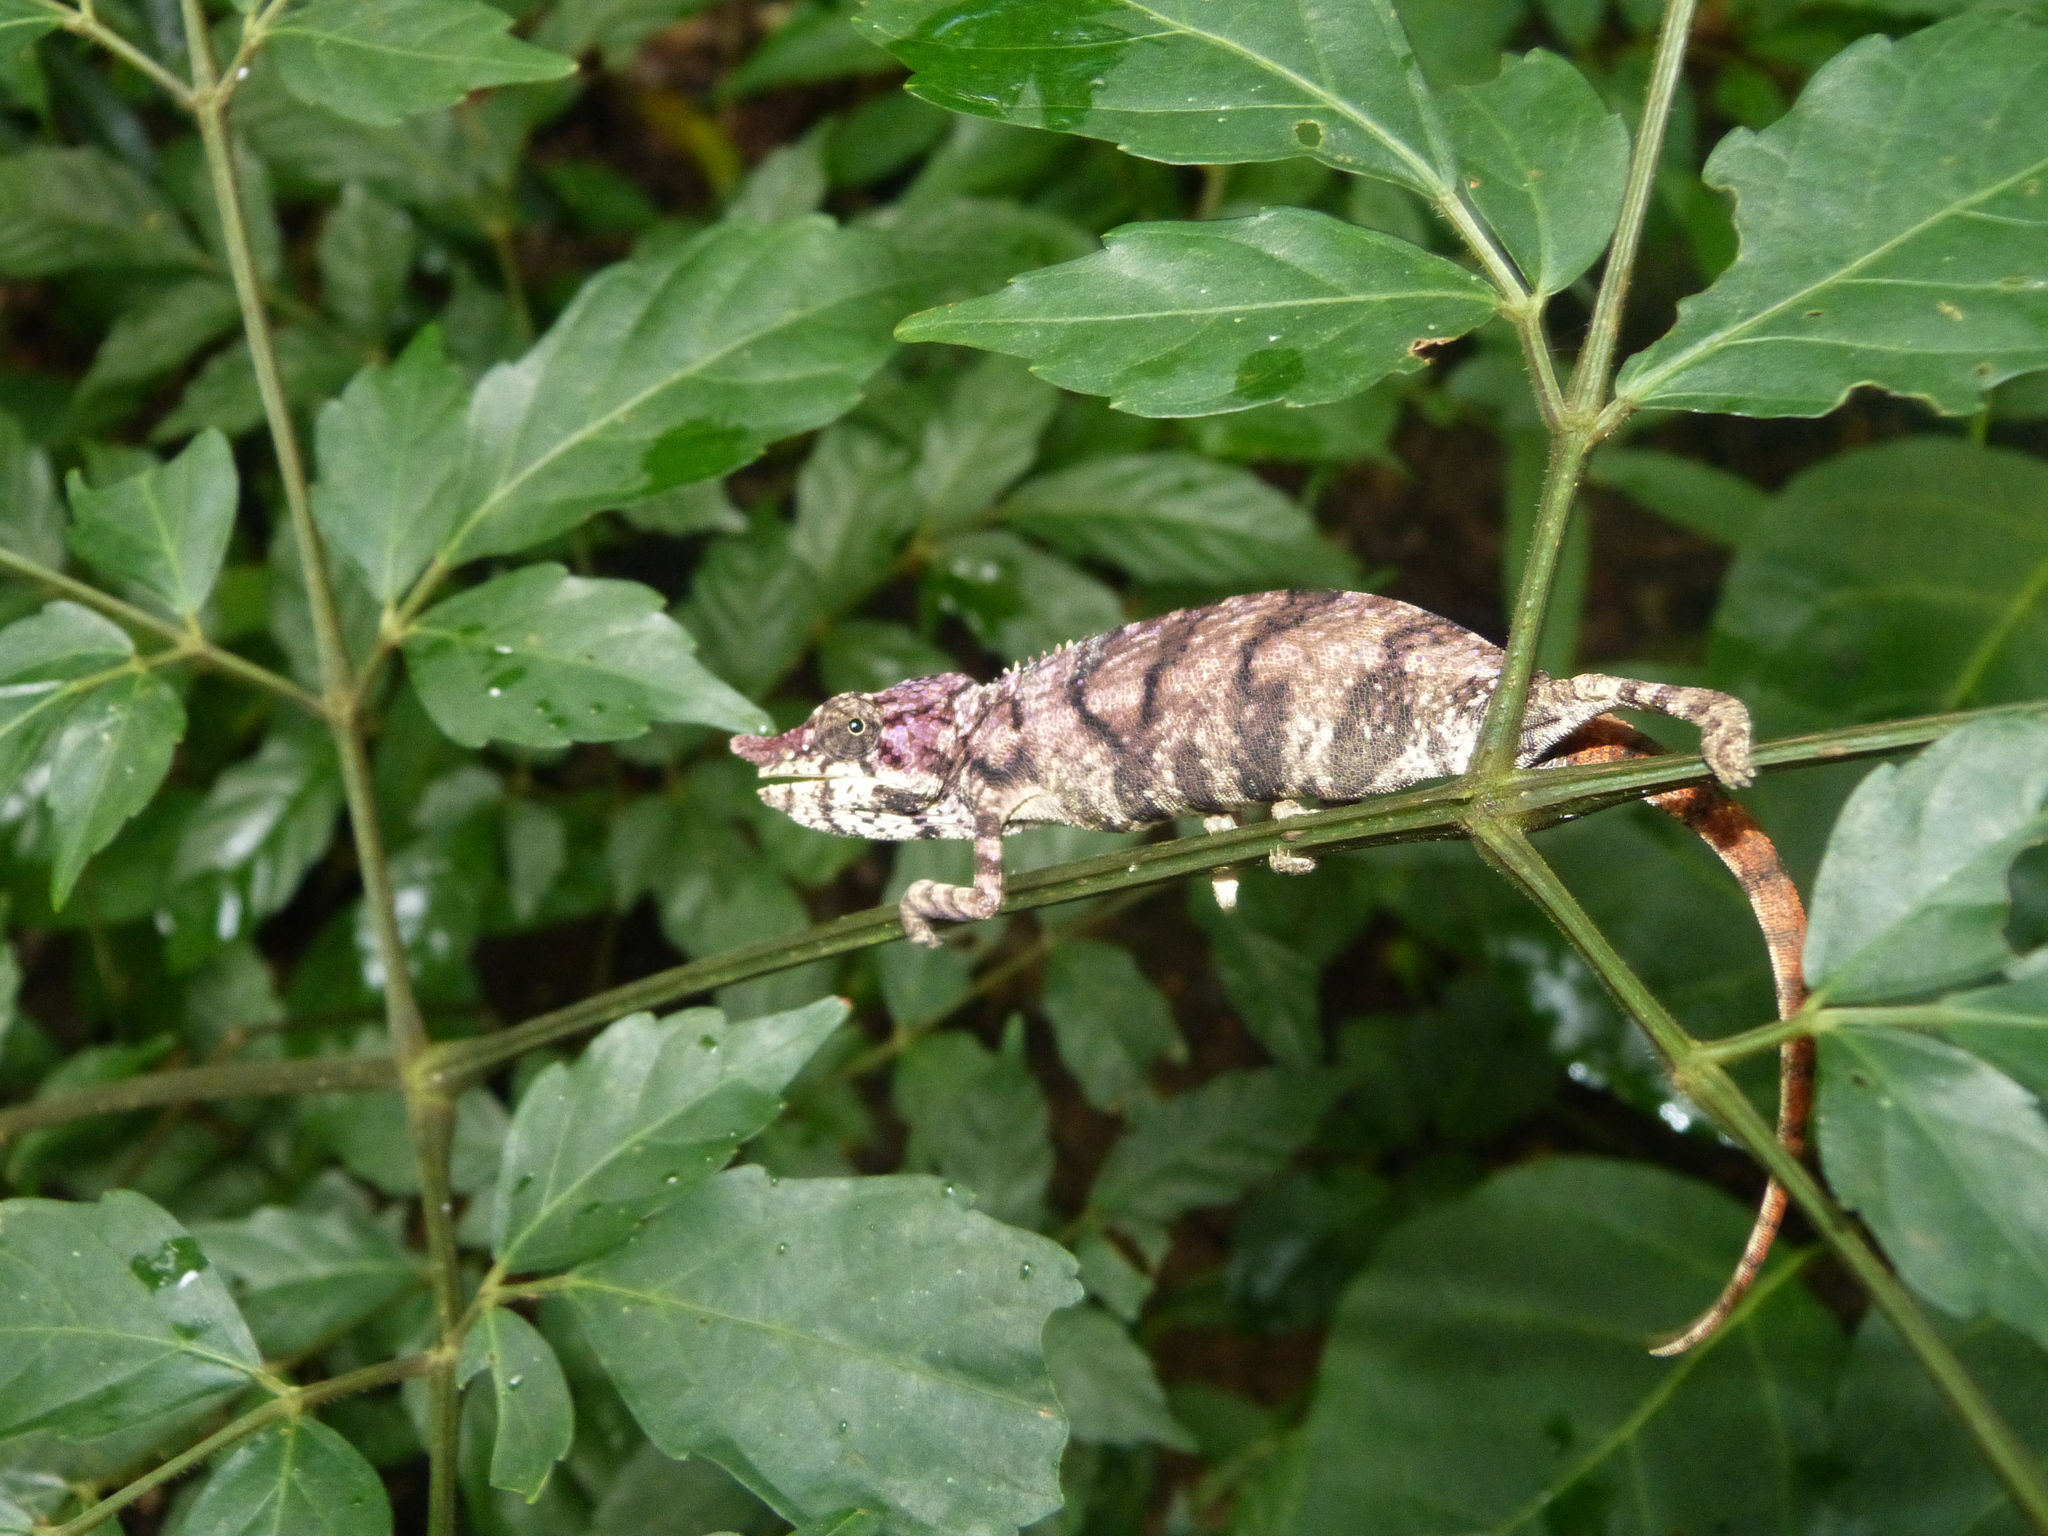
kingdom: Animalia
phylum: Chordata
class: Squamata
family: Chamaeleonidae
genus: Furcifer
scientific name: Furcifer rhinoceratus
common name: Rhinoceros chameleon
